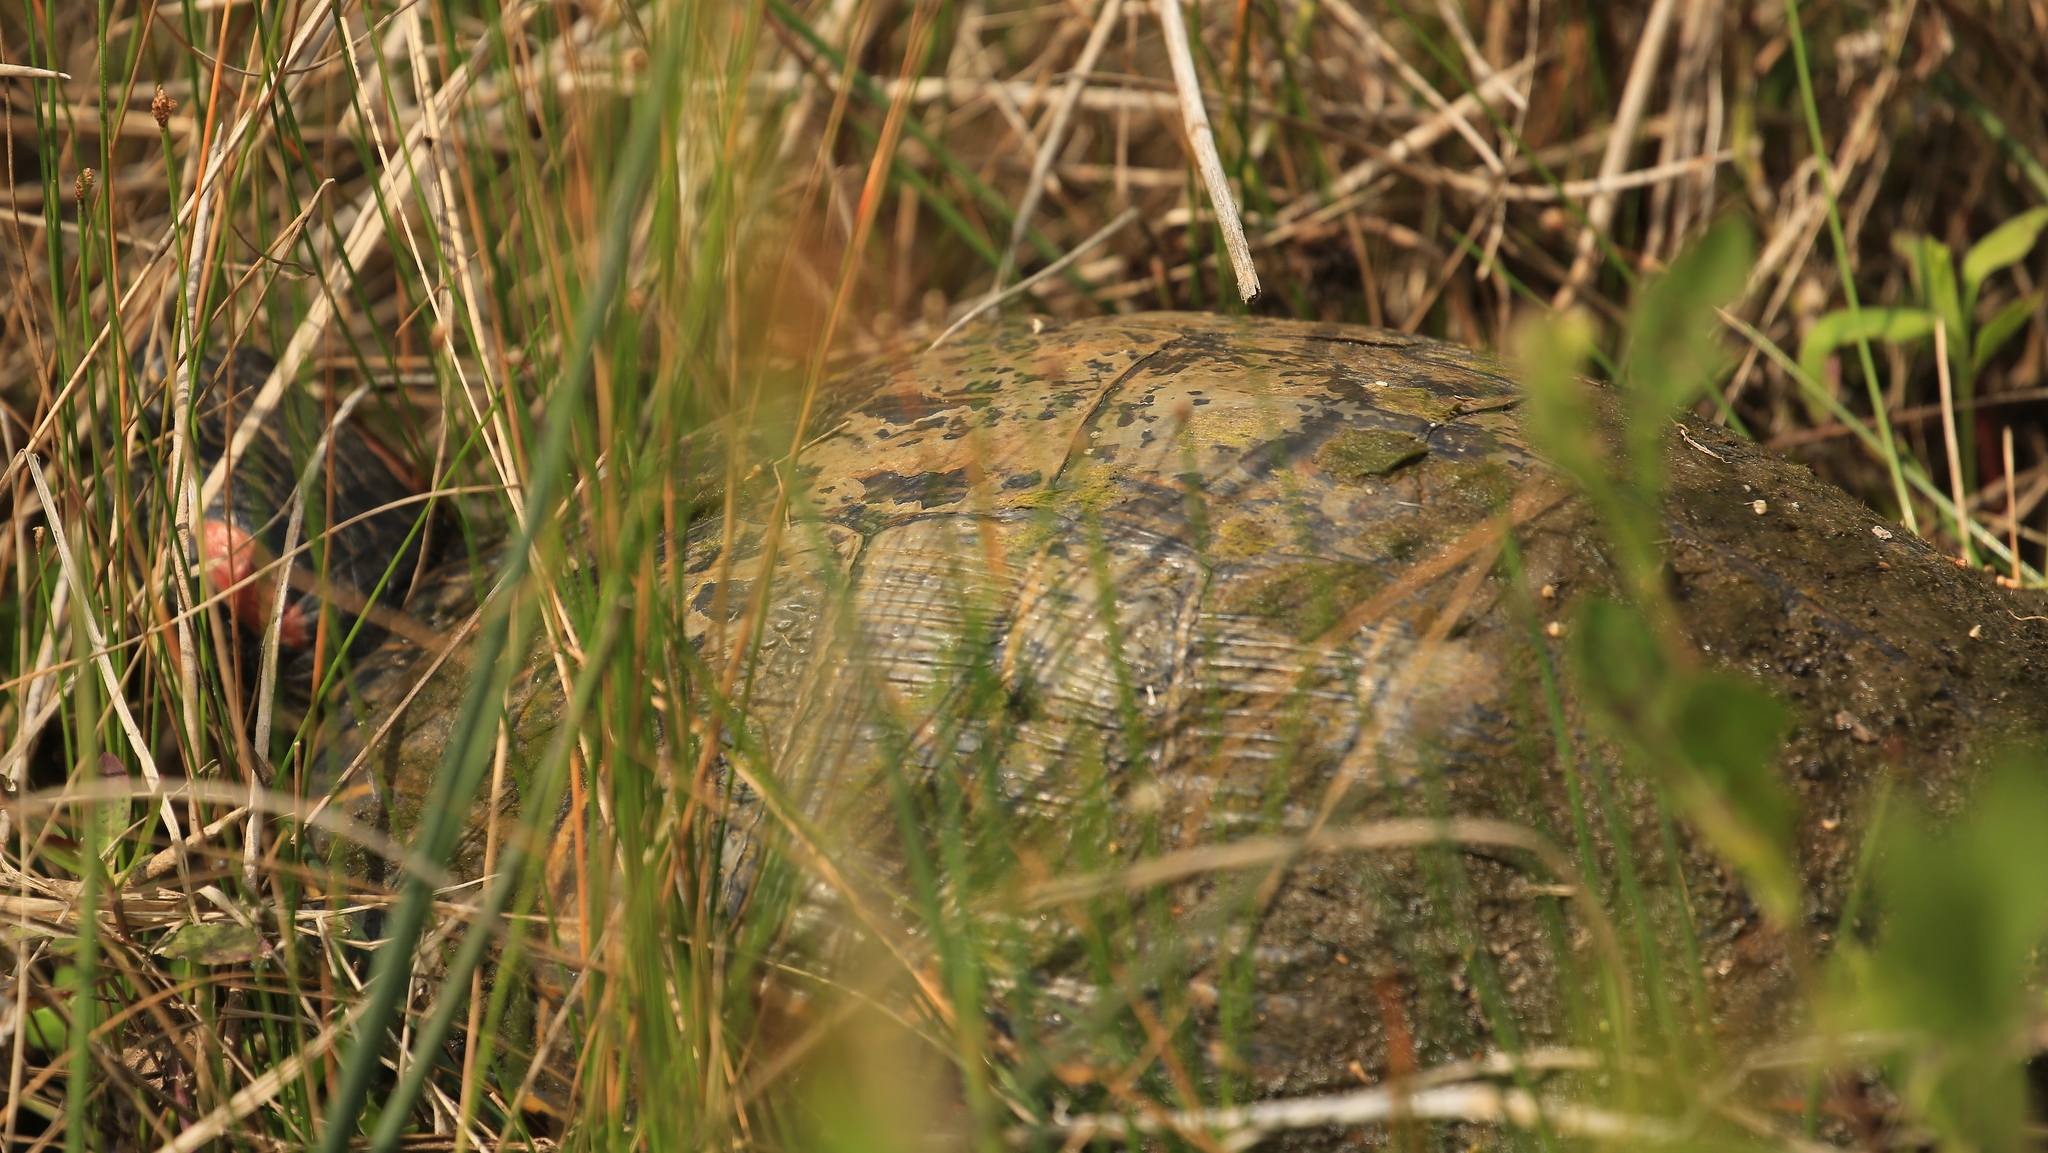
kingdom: Animalia
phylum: Chordata
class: Testudines
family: Emydidae
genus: Trachemys
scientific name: Trachemys scripta
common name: Slider
